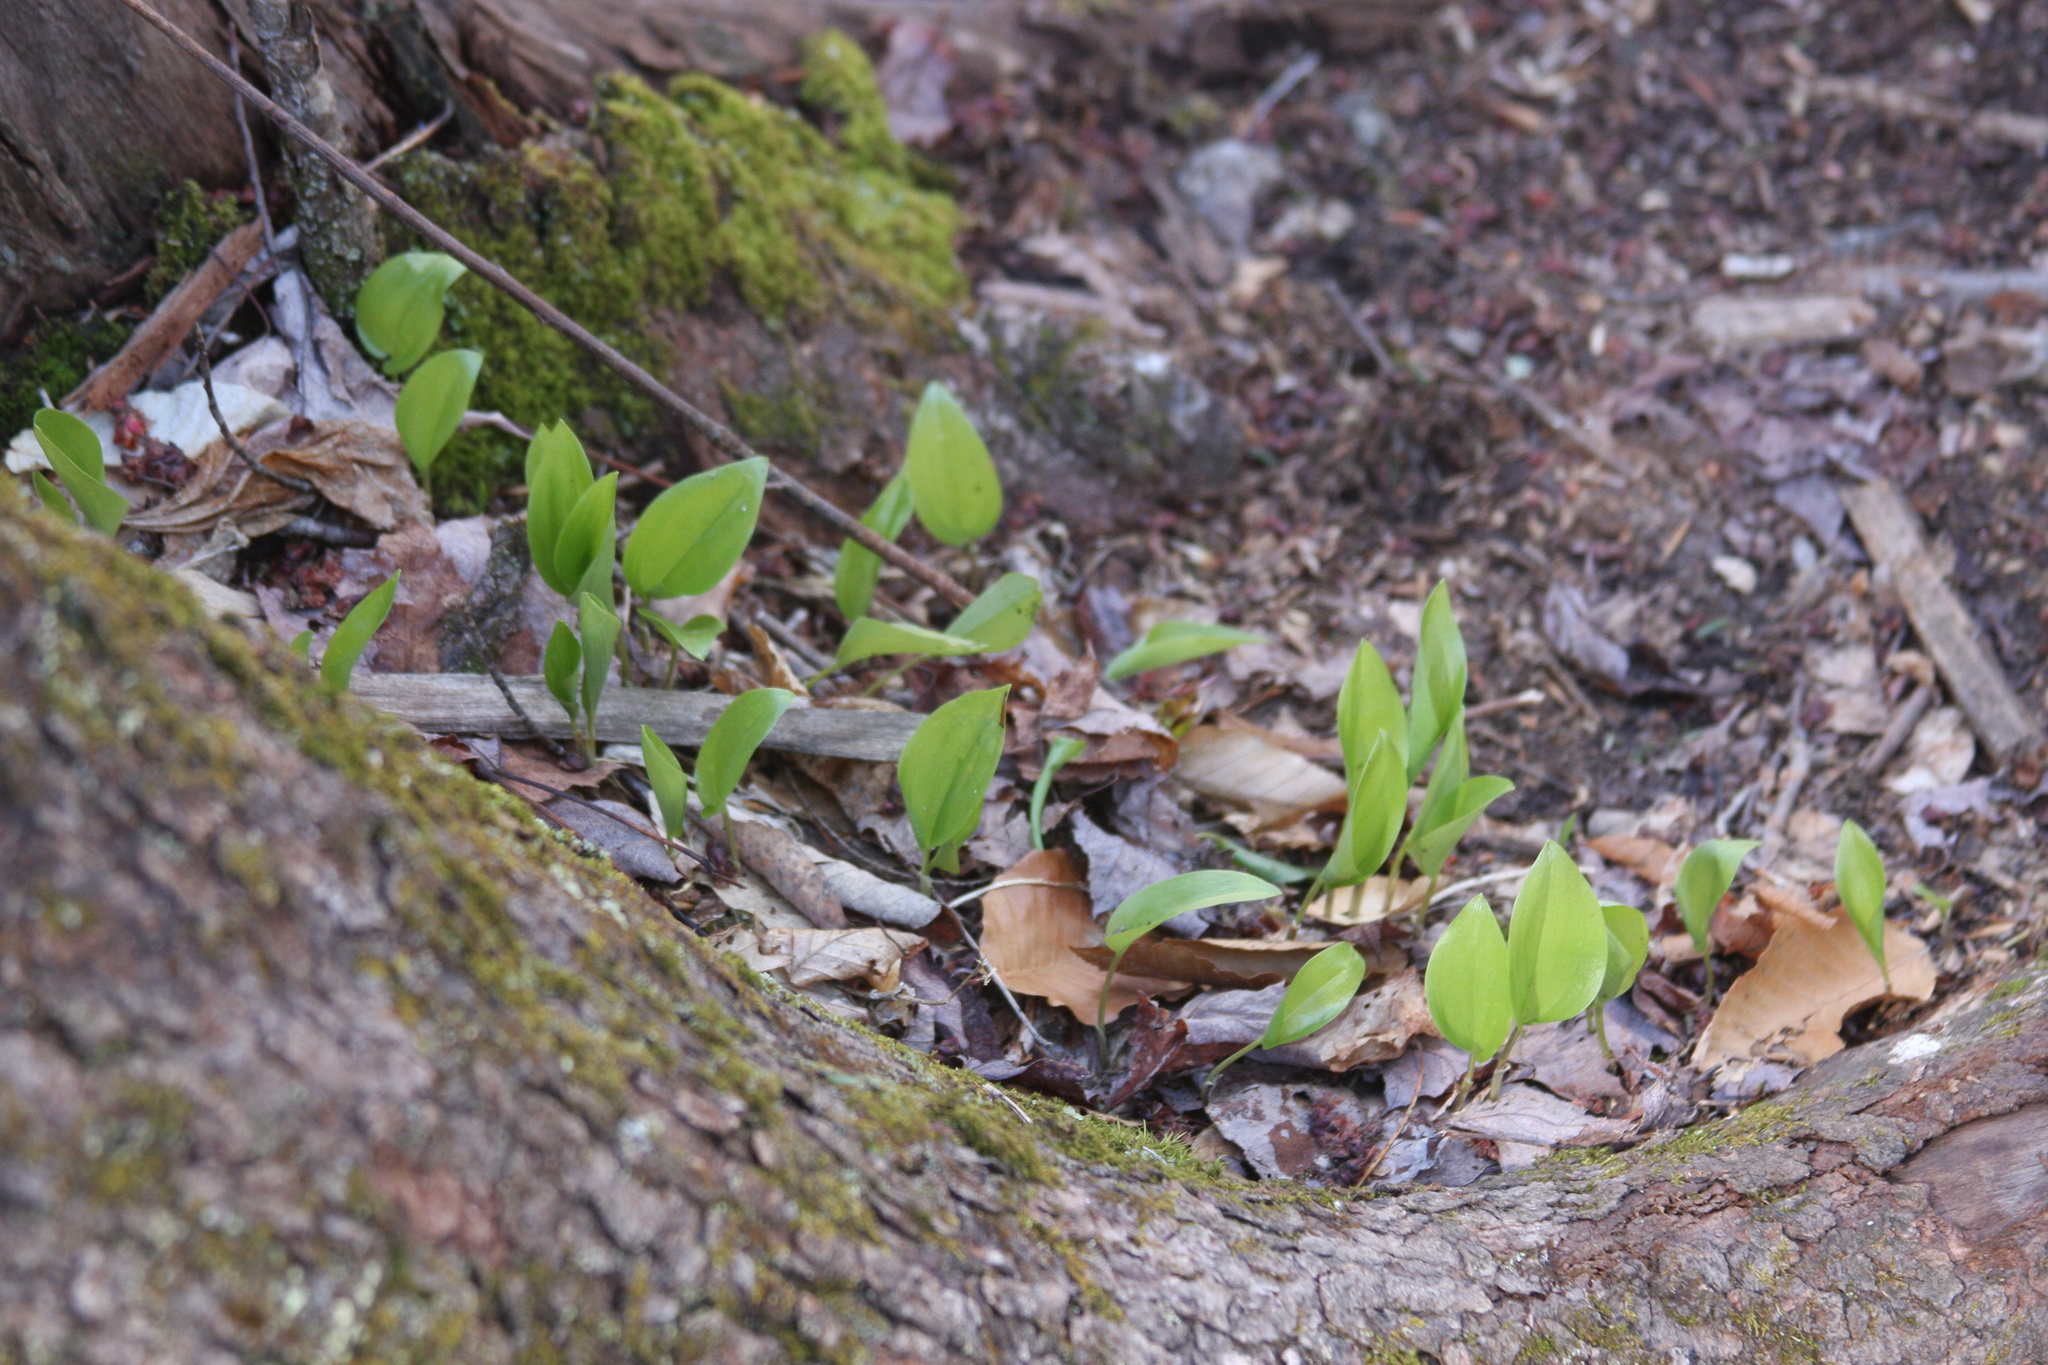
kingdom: Plantae
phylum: Tracheophyta
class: Liliopsida
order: Asparagales
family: Asparagaceae
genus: Maianthemum
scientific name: Maianthemum canadense
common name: False lily-of-the-valley
